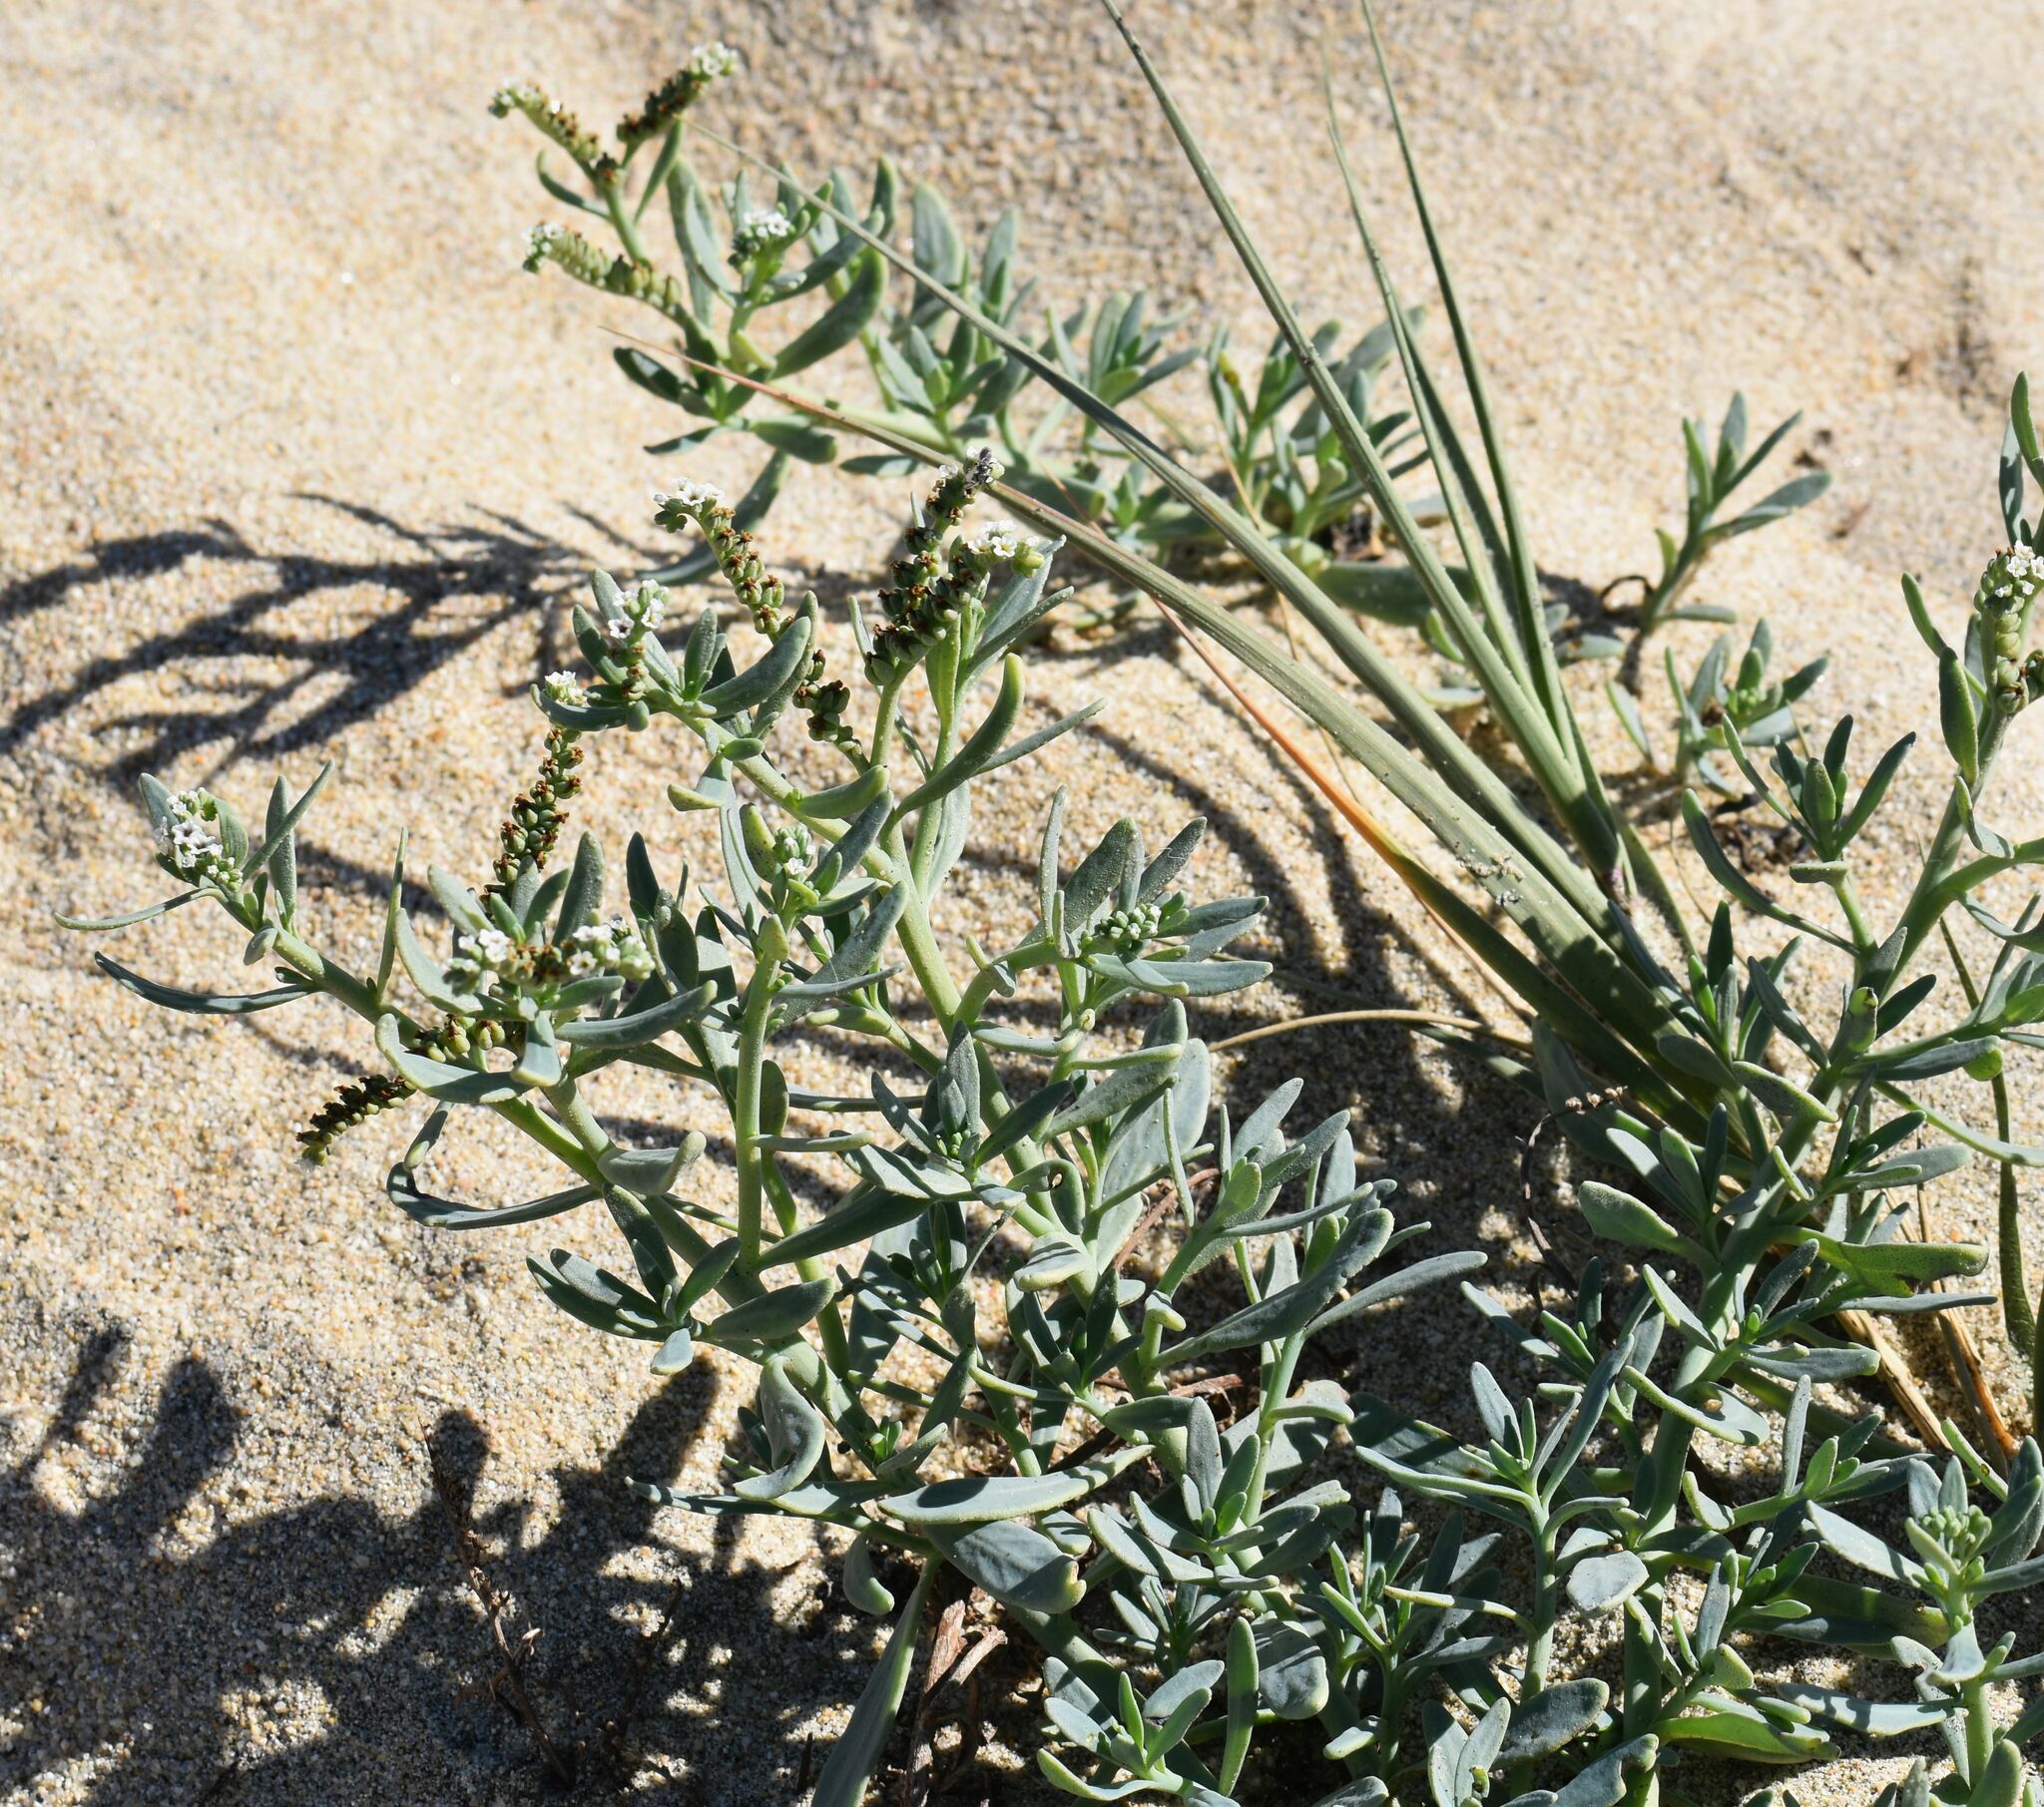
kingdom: Plantae
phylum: Tracheophyta
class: Magnoliopsida
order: Boraginales
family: Heliotropiaceae
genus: Heliotropium
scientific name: Heliotropium curassavicum
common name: Seaside heliotrope
